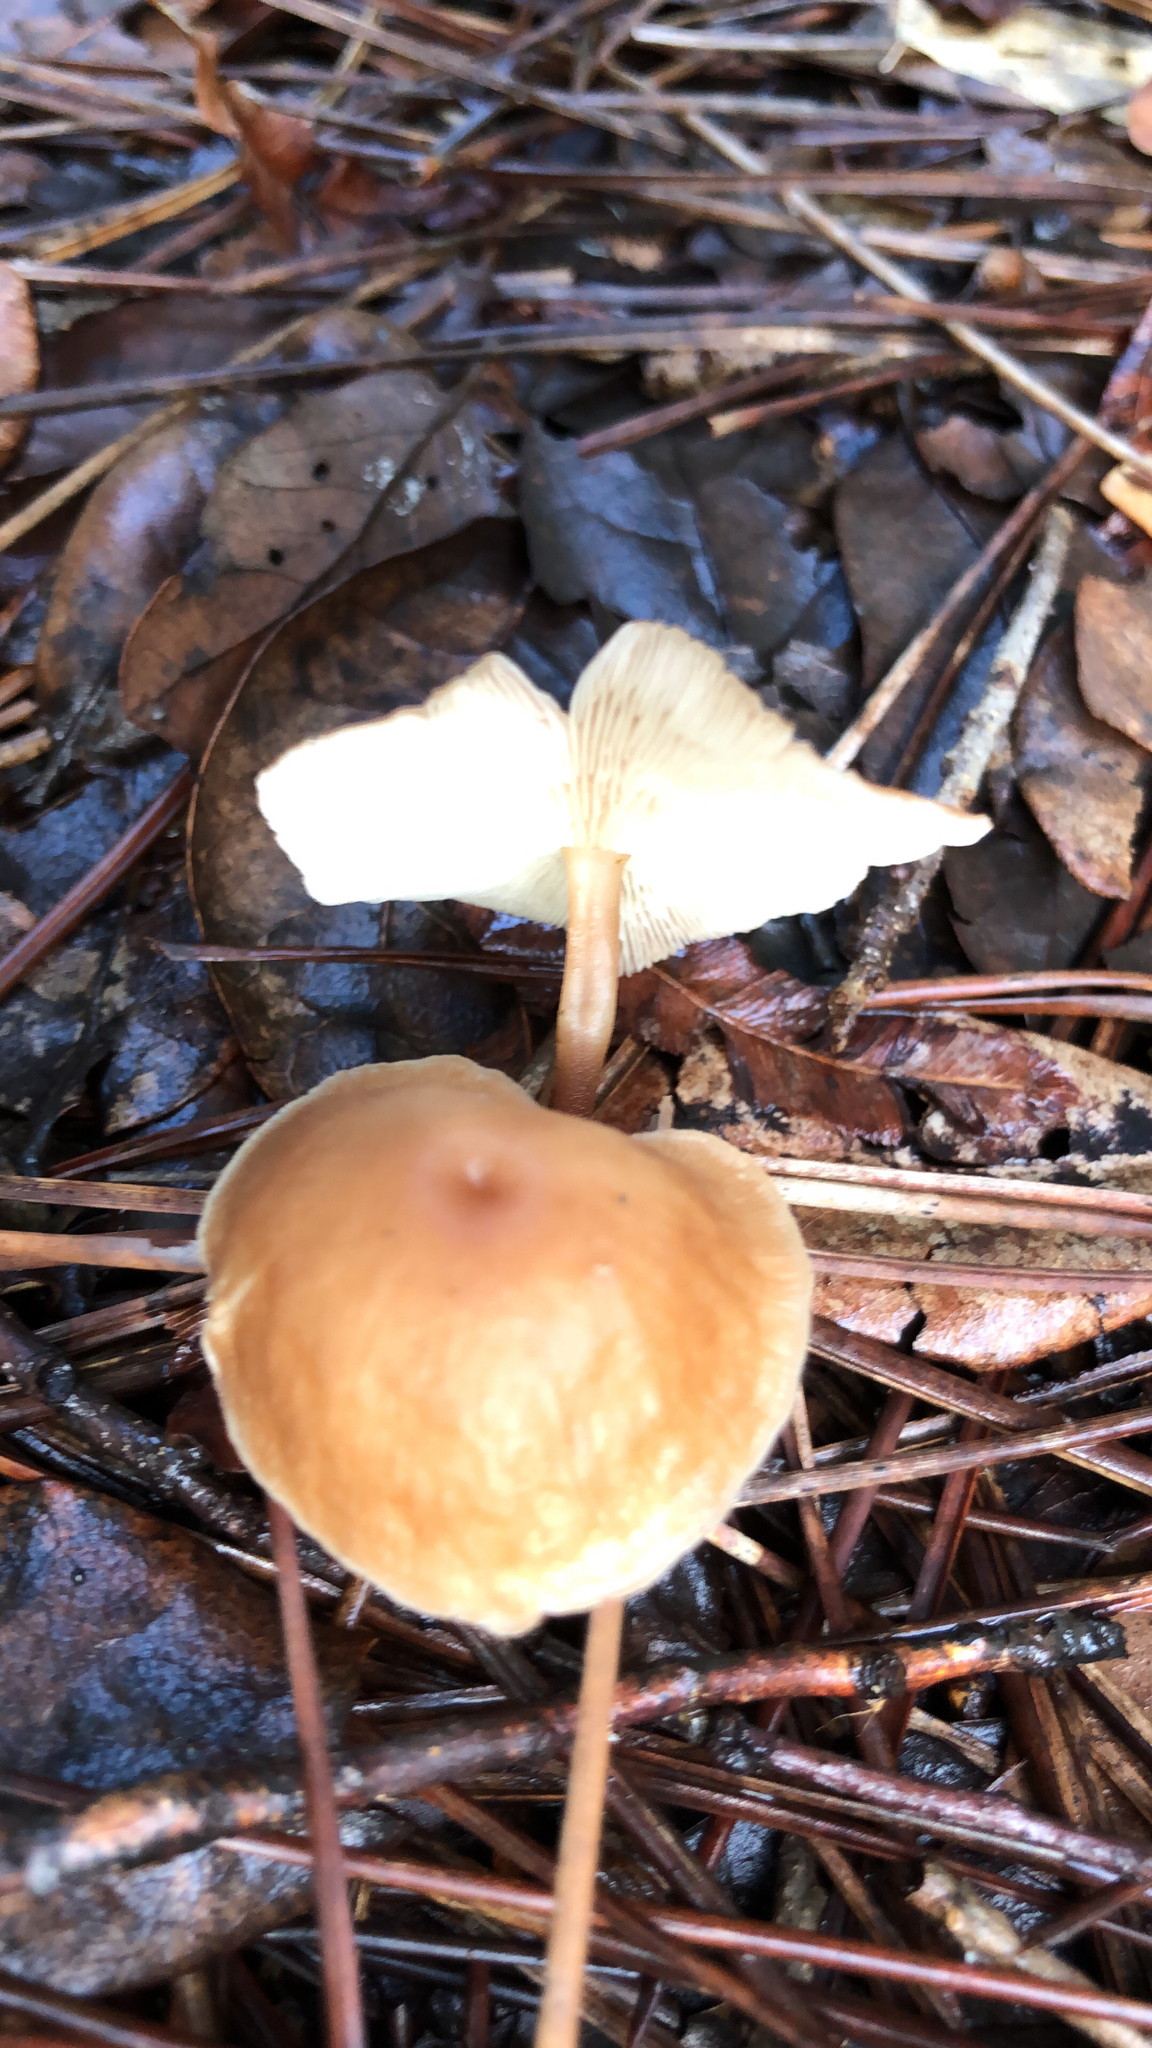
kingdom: Fungi
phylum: Basidiomycota
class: Agaricomycetes
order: Agaricales
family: Omphalotaceae
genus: Gymnopus
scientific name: Gymnopus dryophilus
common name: Penny top
